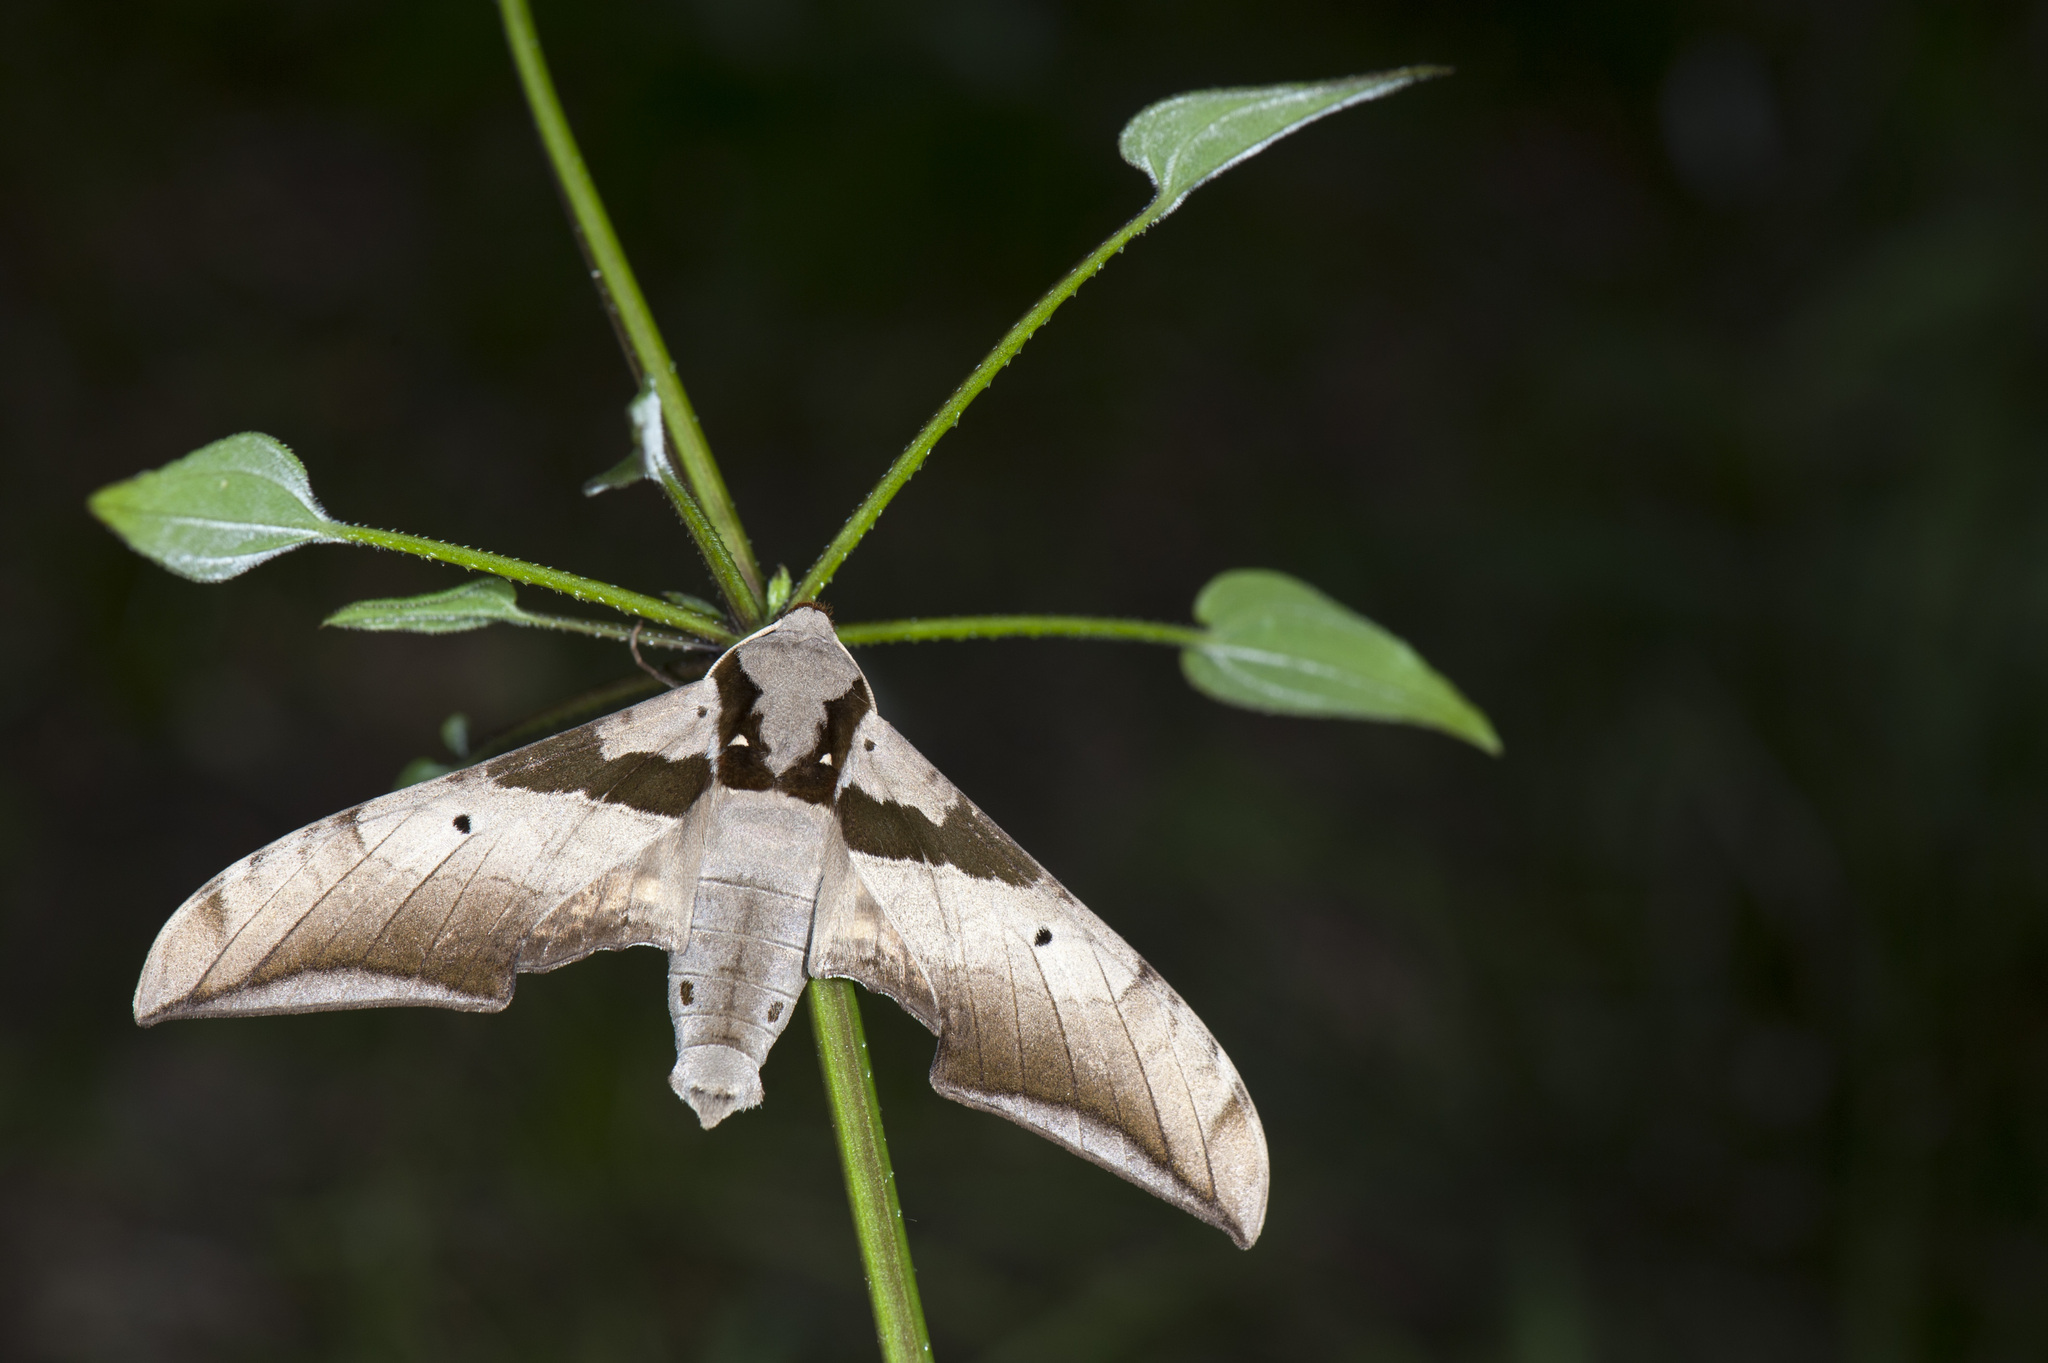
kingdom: Animalia
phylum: Arthropoda
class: Insecta
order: Lepidoptera
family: Sphingidae
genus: Ambulyx
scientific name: Ambulyx japonica
